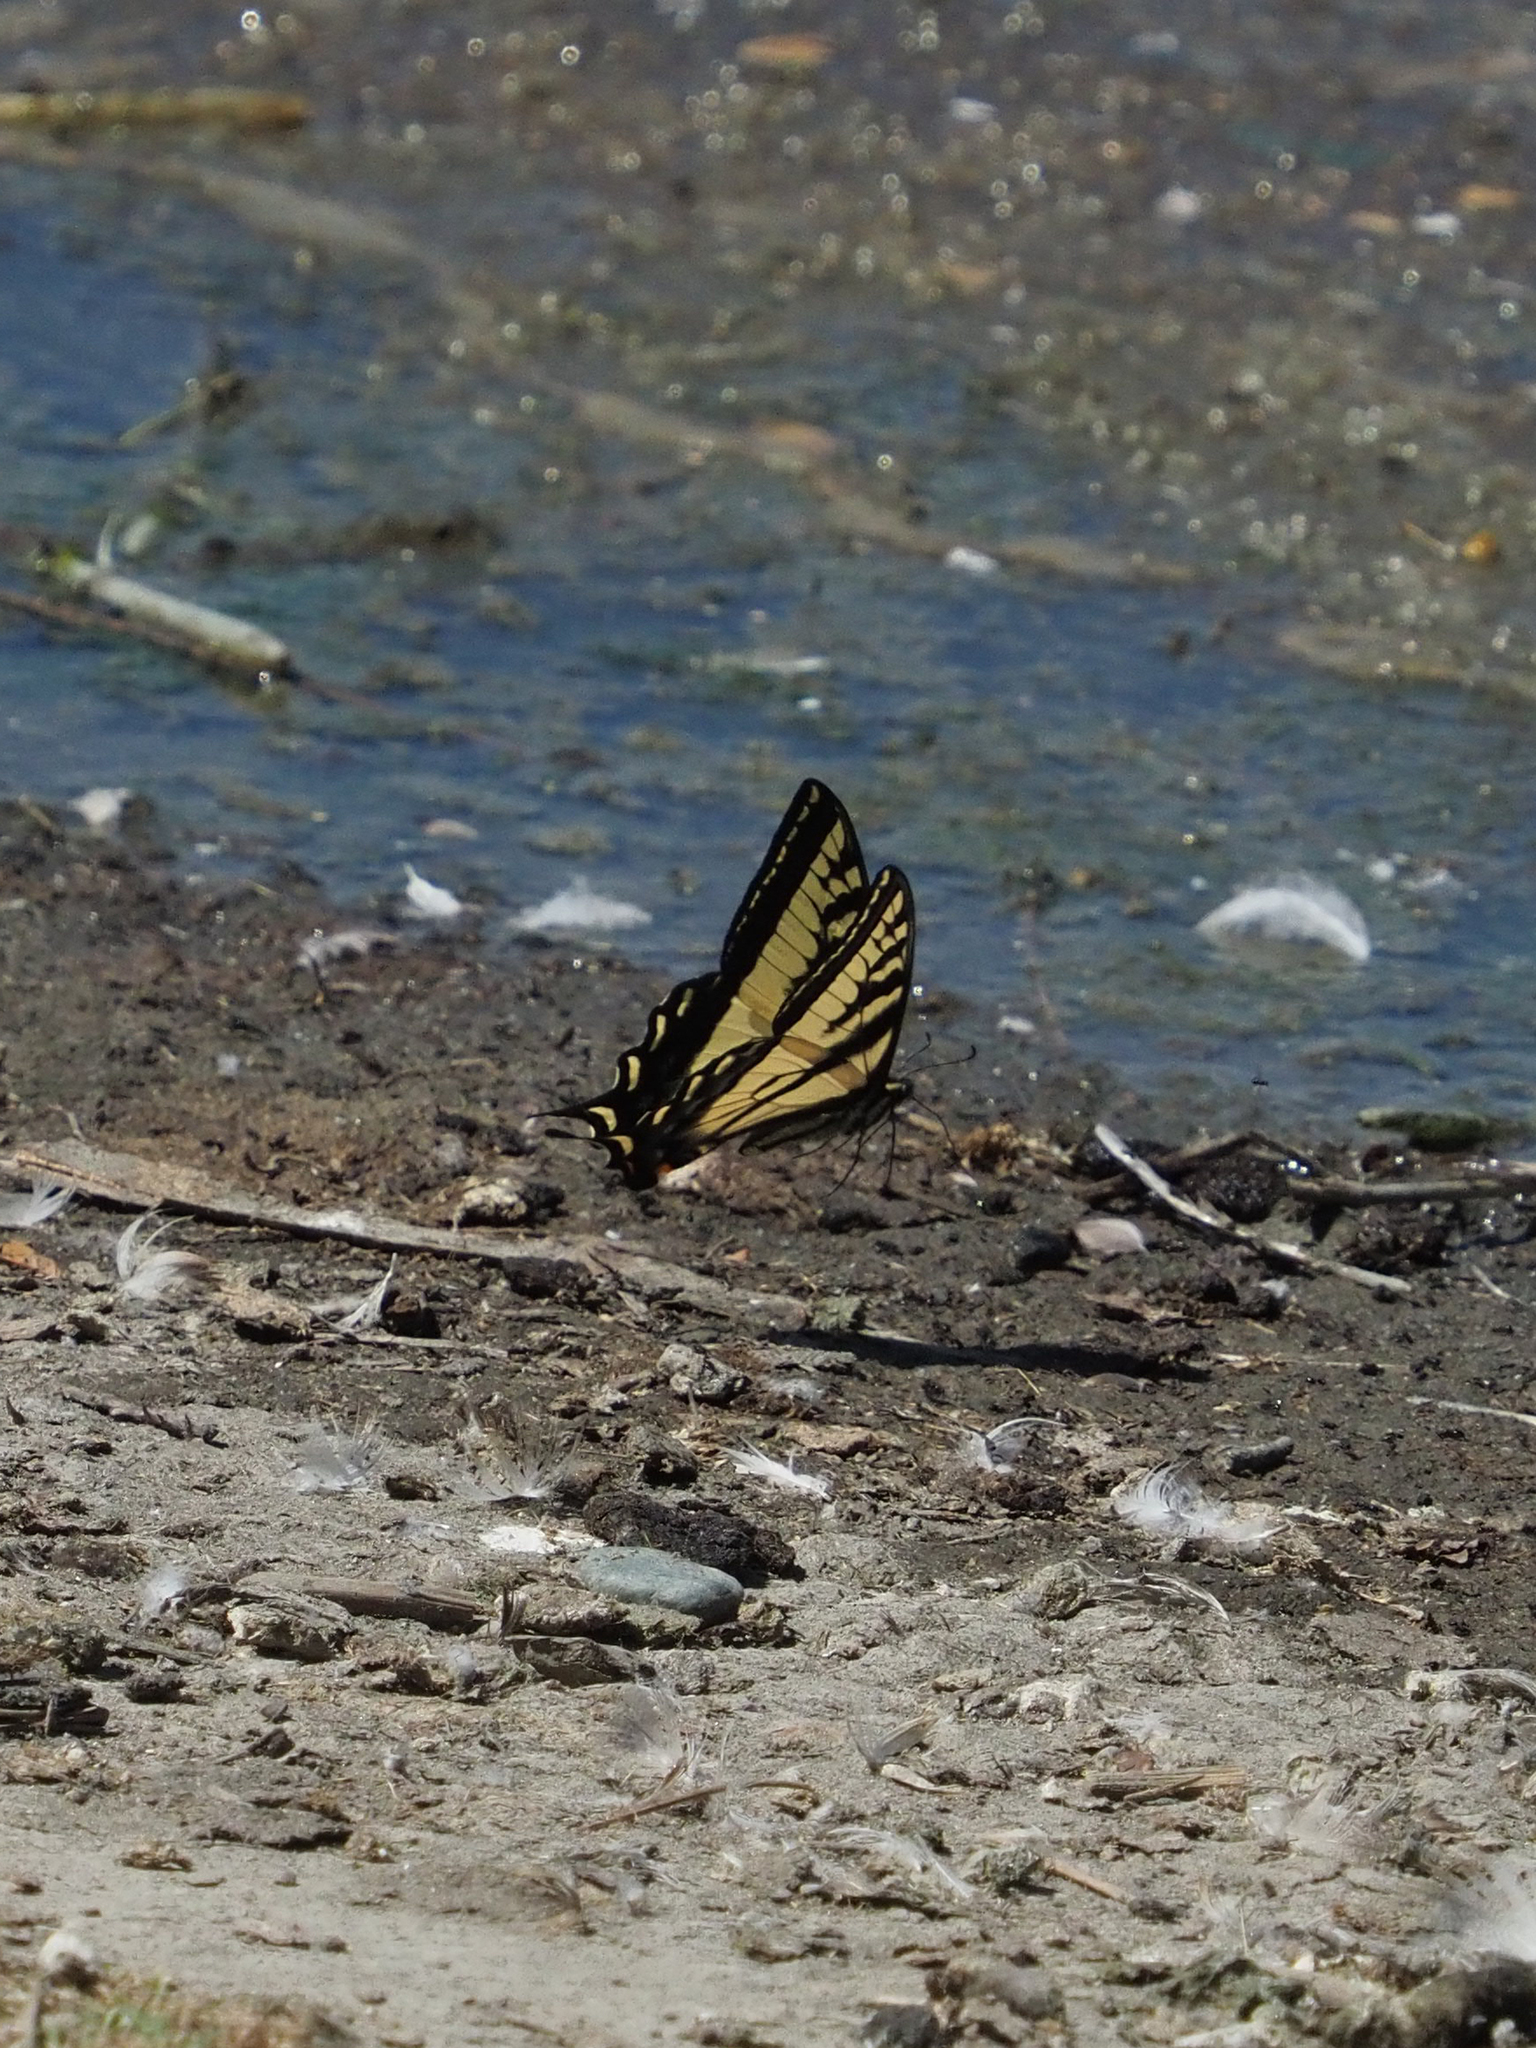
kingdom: Animalia
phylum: Arthropoda
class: Insecta
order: Lepidoptera
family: Papilionidae
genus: Papilio
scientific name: Papilio rutulus
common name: Western tiger swallowtail
